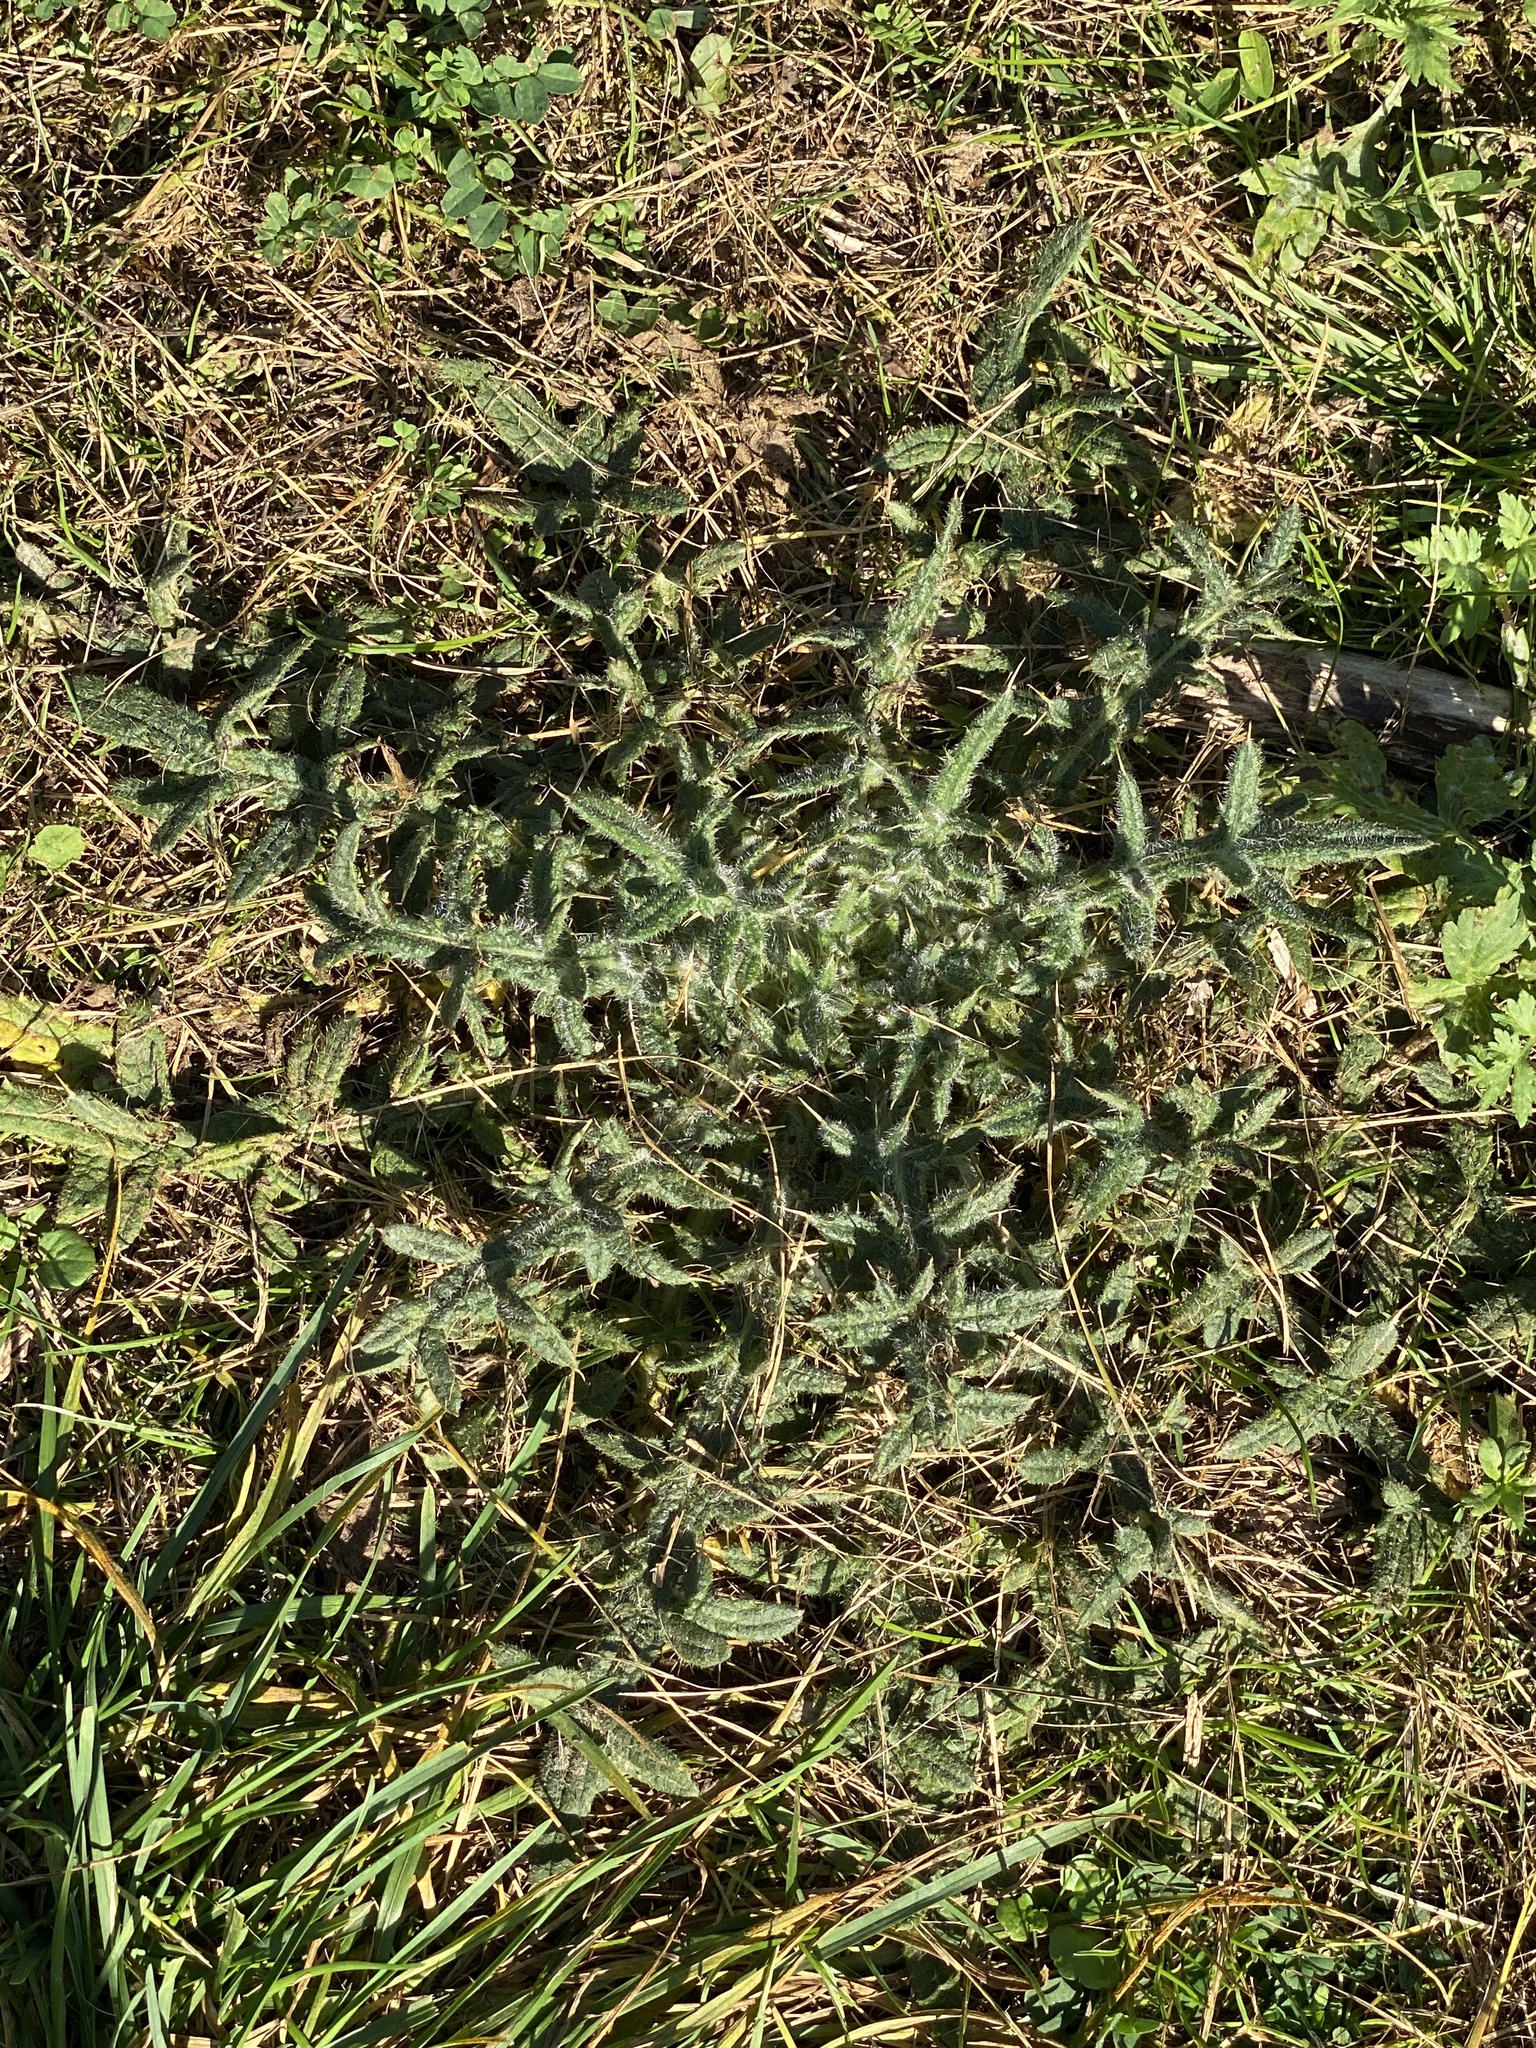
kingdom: Plantae
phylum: Tracheophyta
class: Magnoliopsida
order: Asterales
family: Asteraceae
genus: Cirsium
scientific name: Cirsium vulgare
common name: Bull thistle
